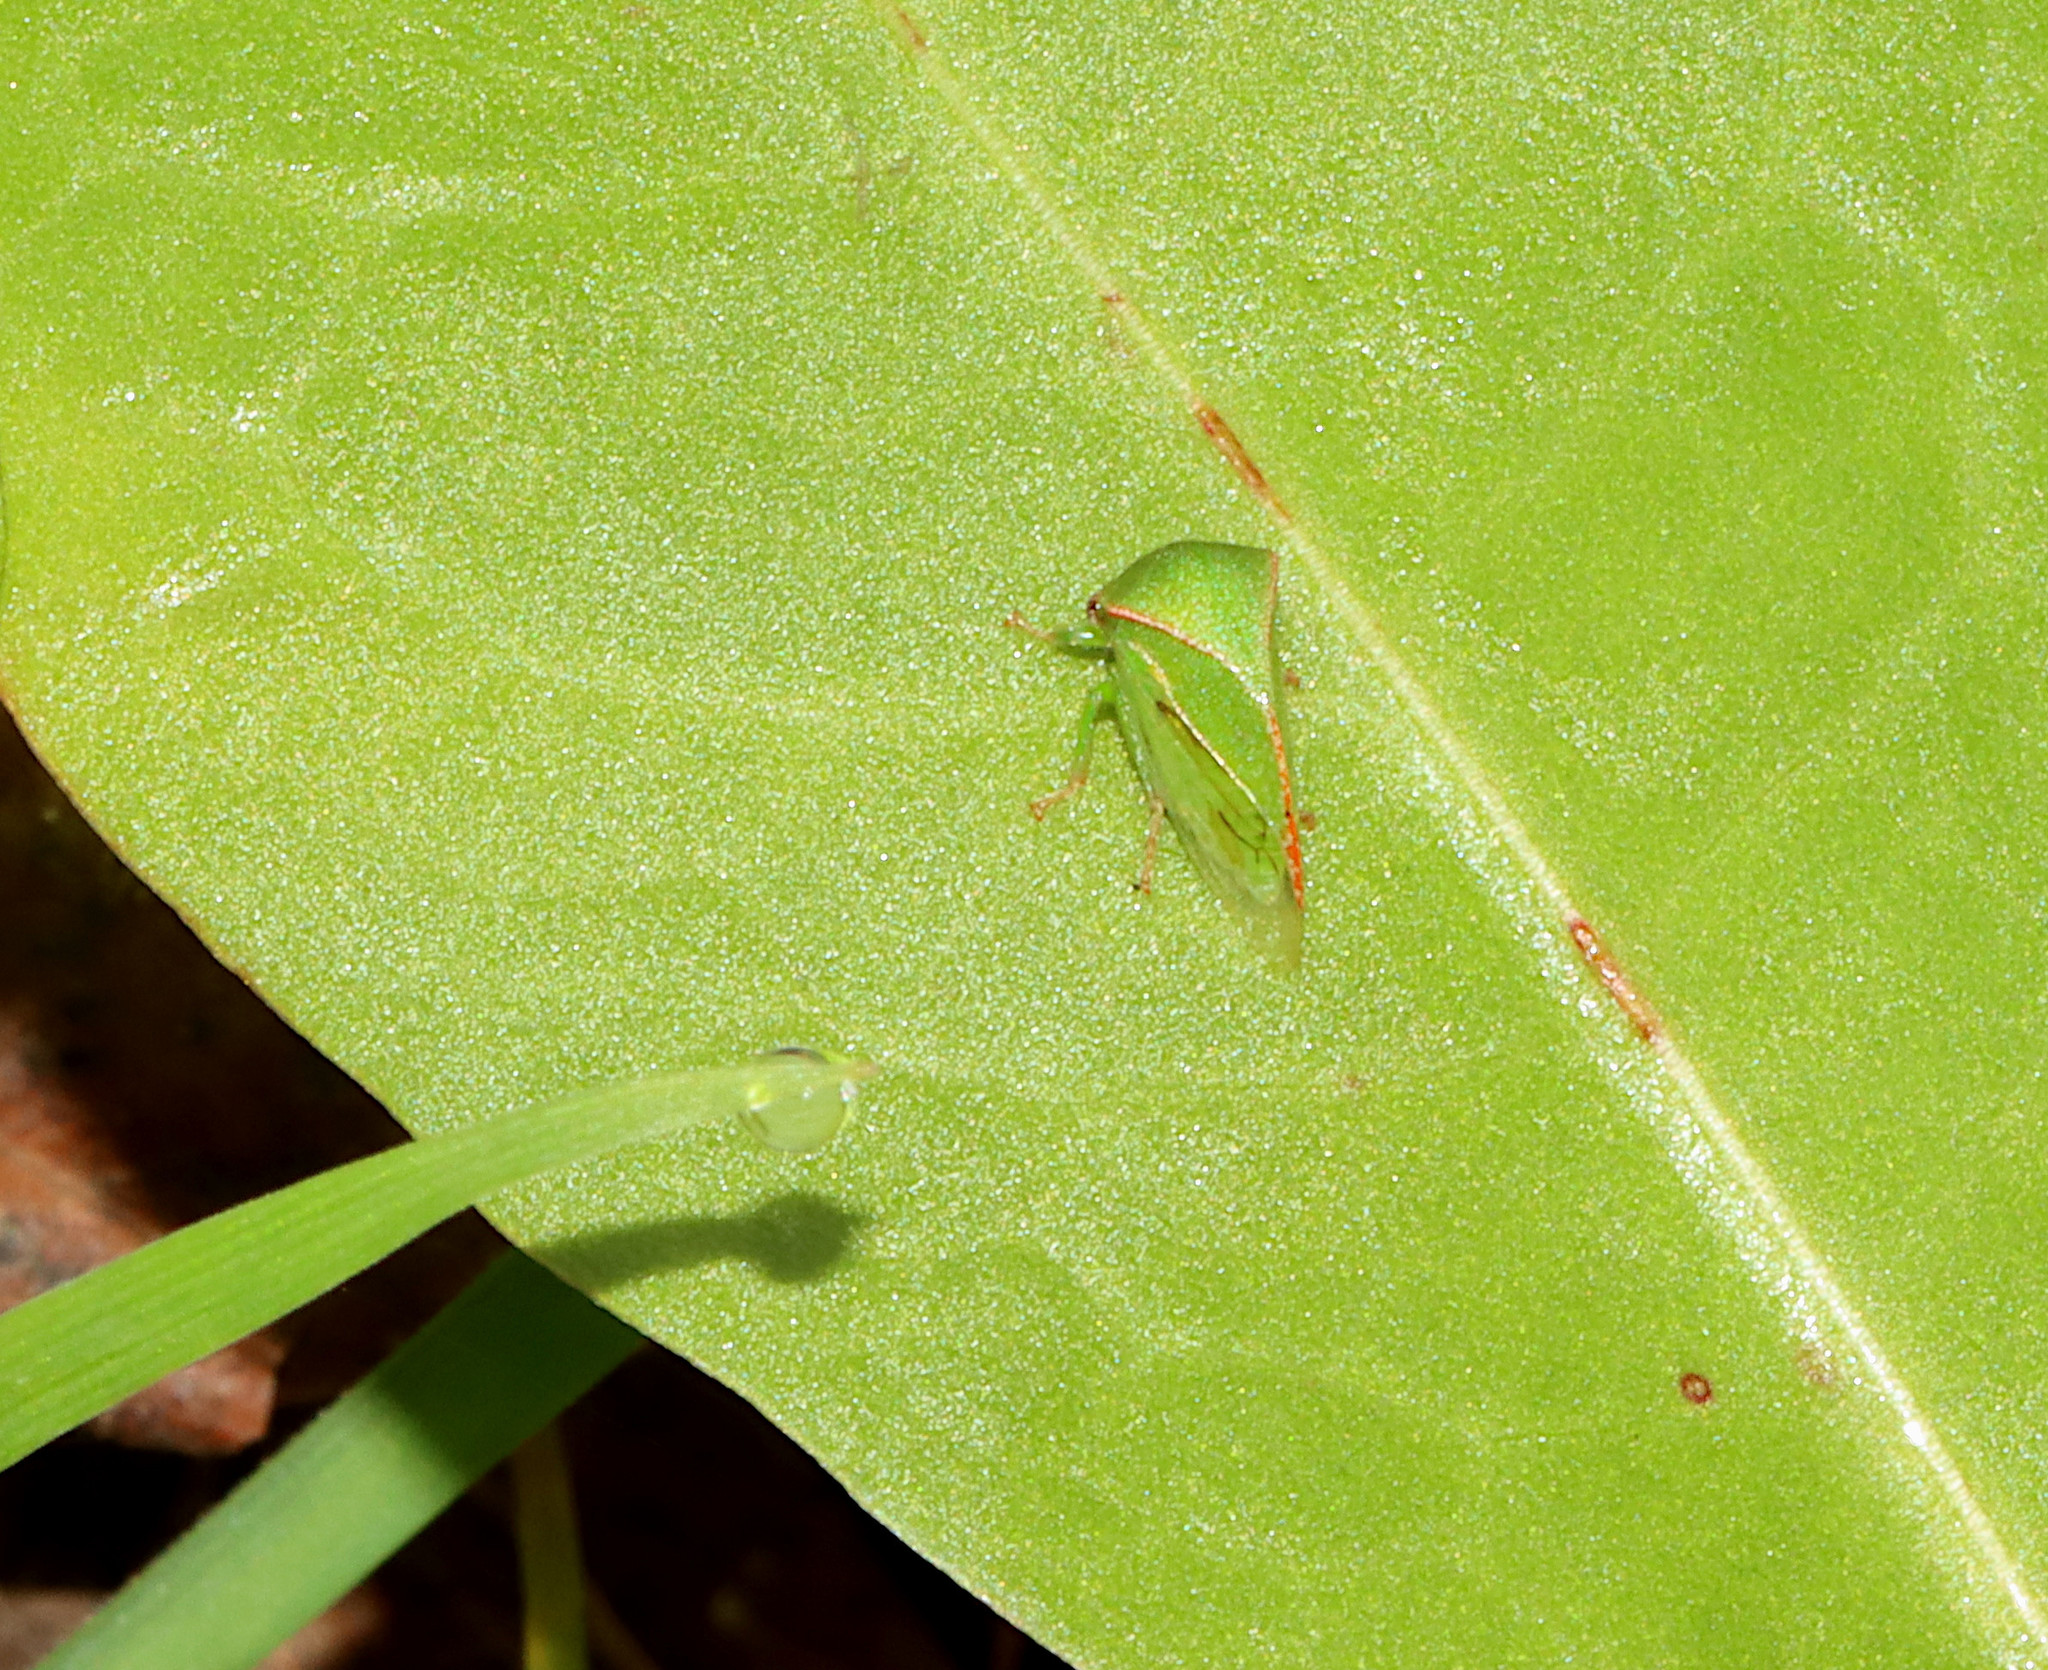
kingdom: Animalia
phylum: Arthropoda
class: Insecta
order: Hemiptera
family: Membracidae
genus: Spissistilus
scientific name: Spissistilus festina
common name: Membracid bug
